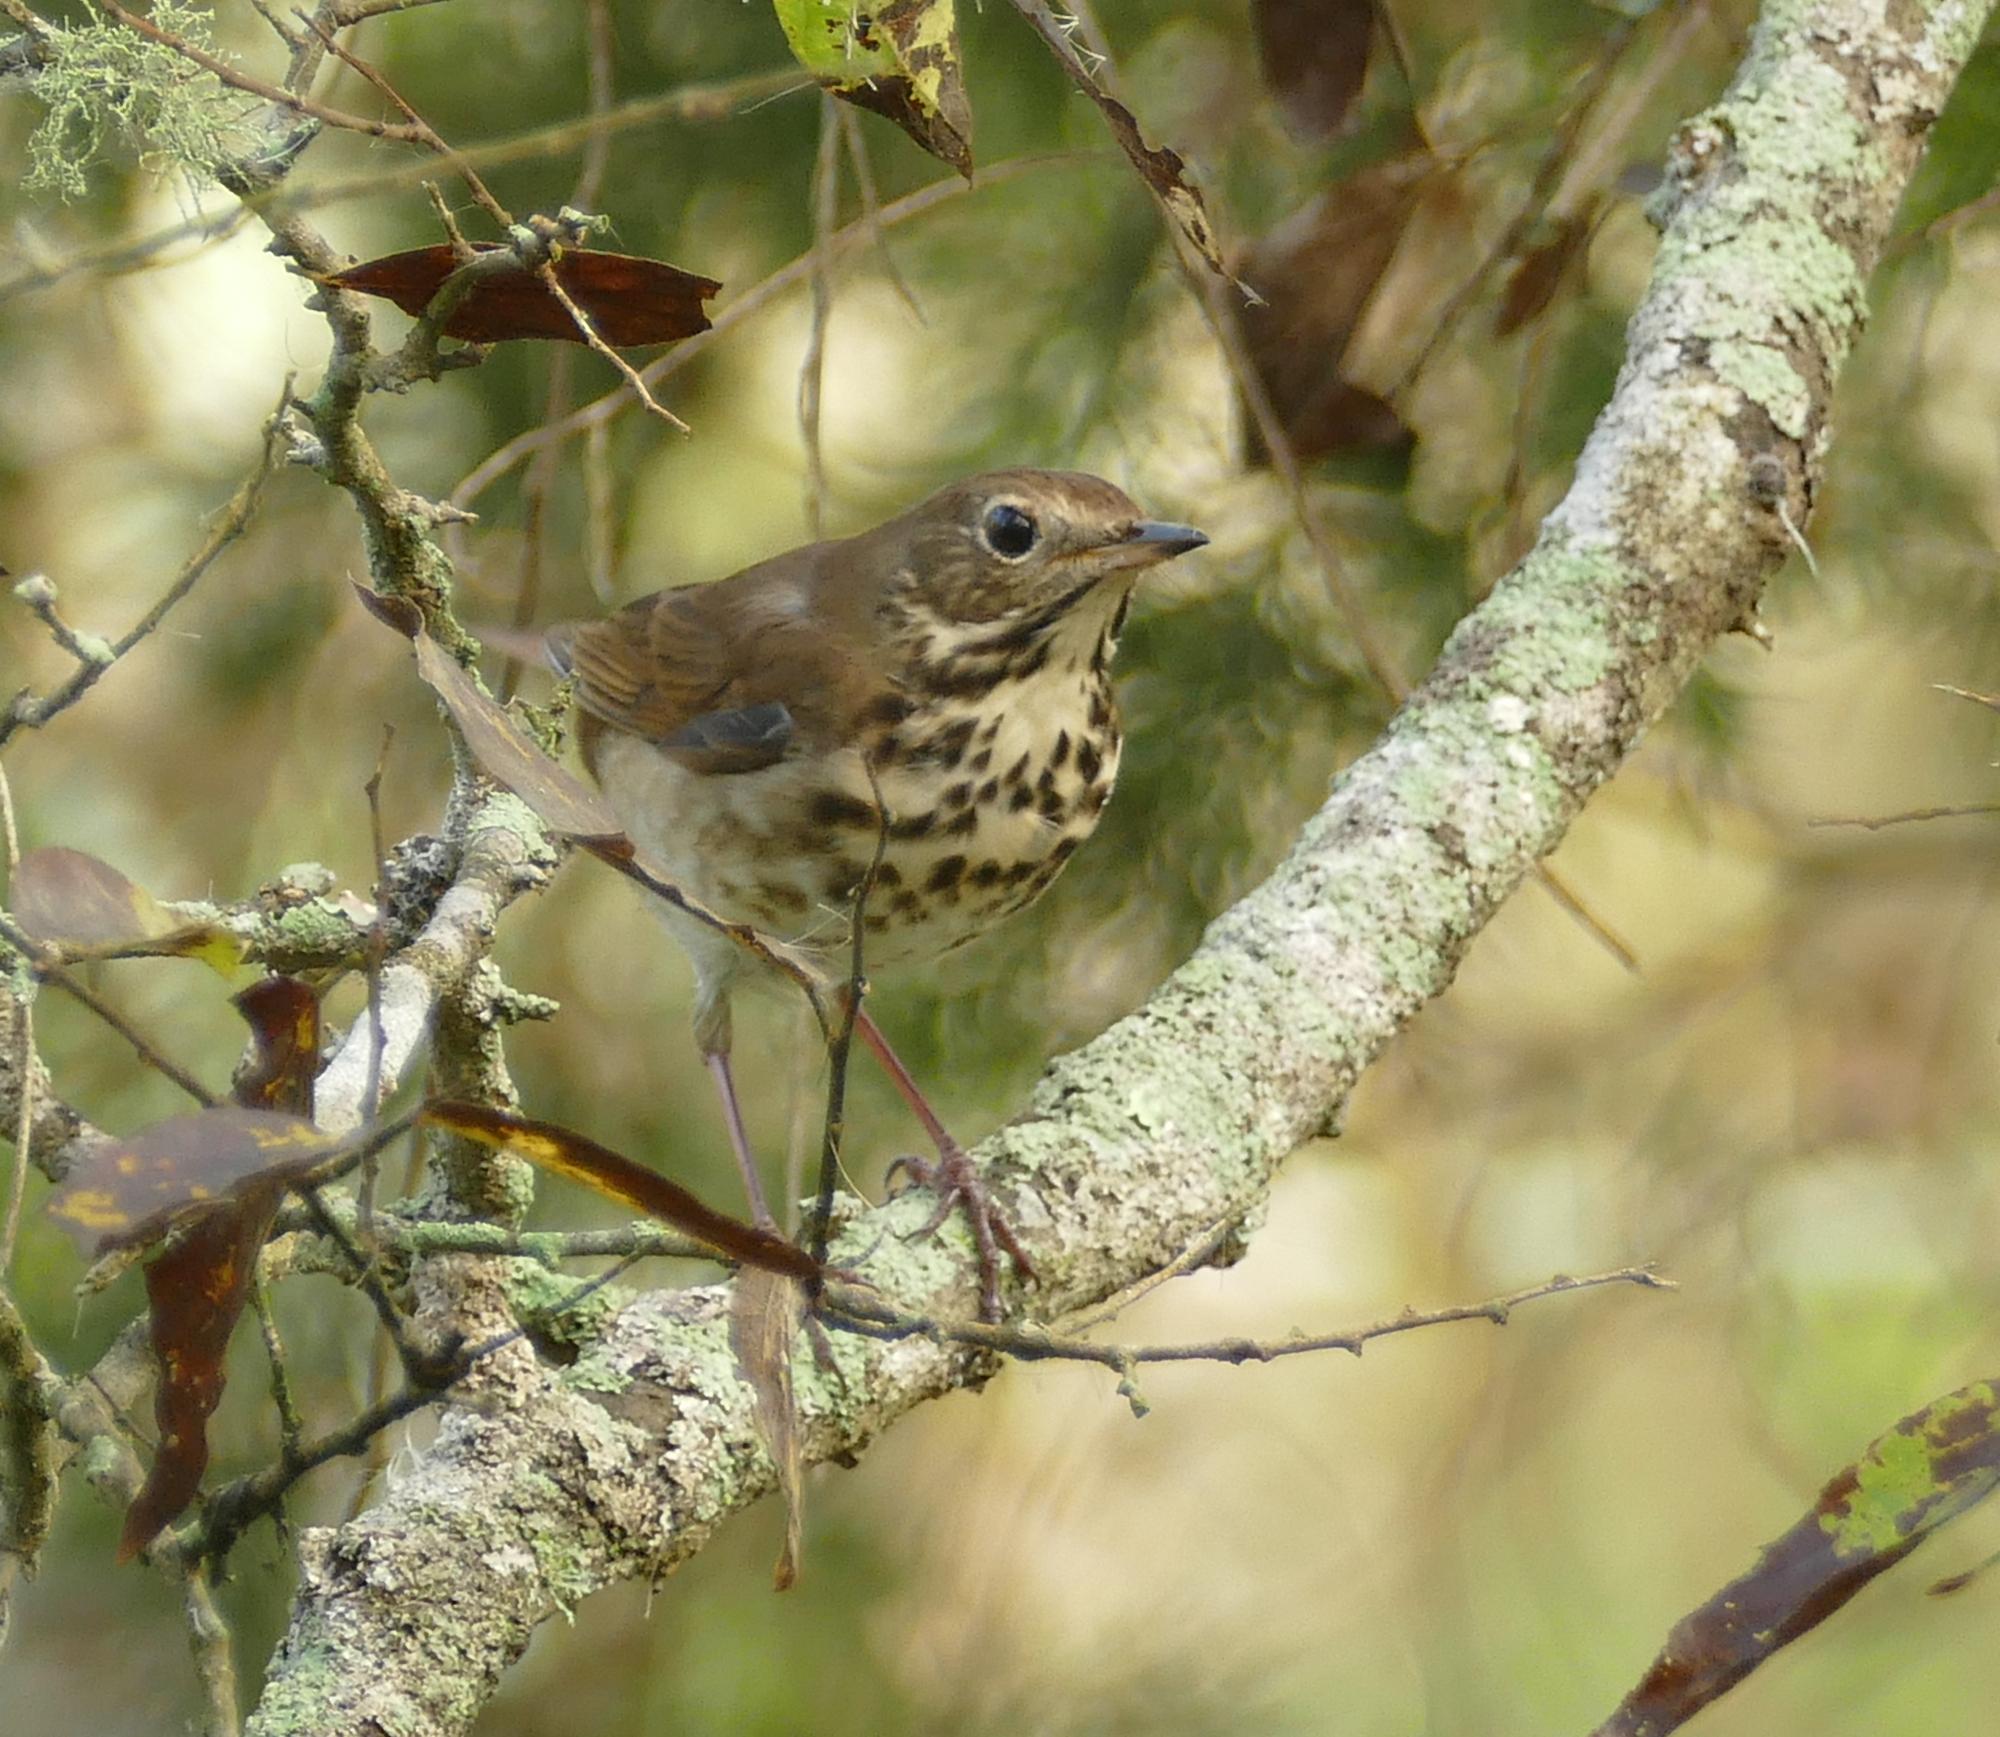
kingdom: Animalia
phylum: Chordata
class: Aves
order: Passeriformes
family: Turdidae
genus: Catharus
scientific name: Catharus guttatus
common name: Hermit thrush
